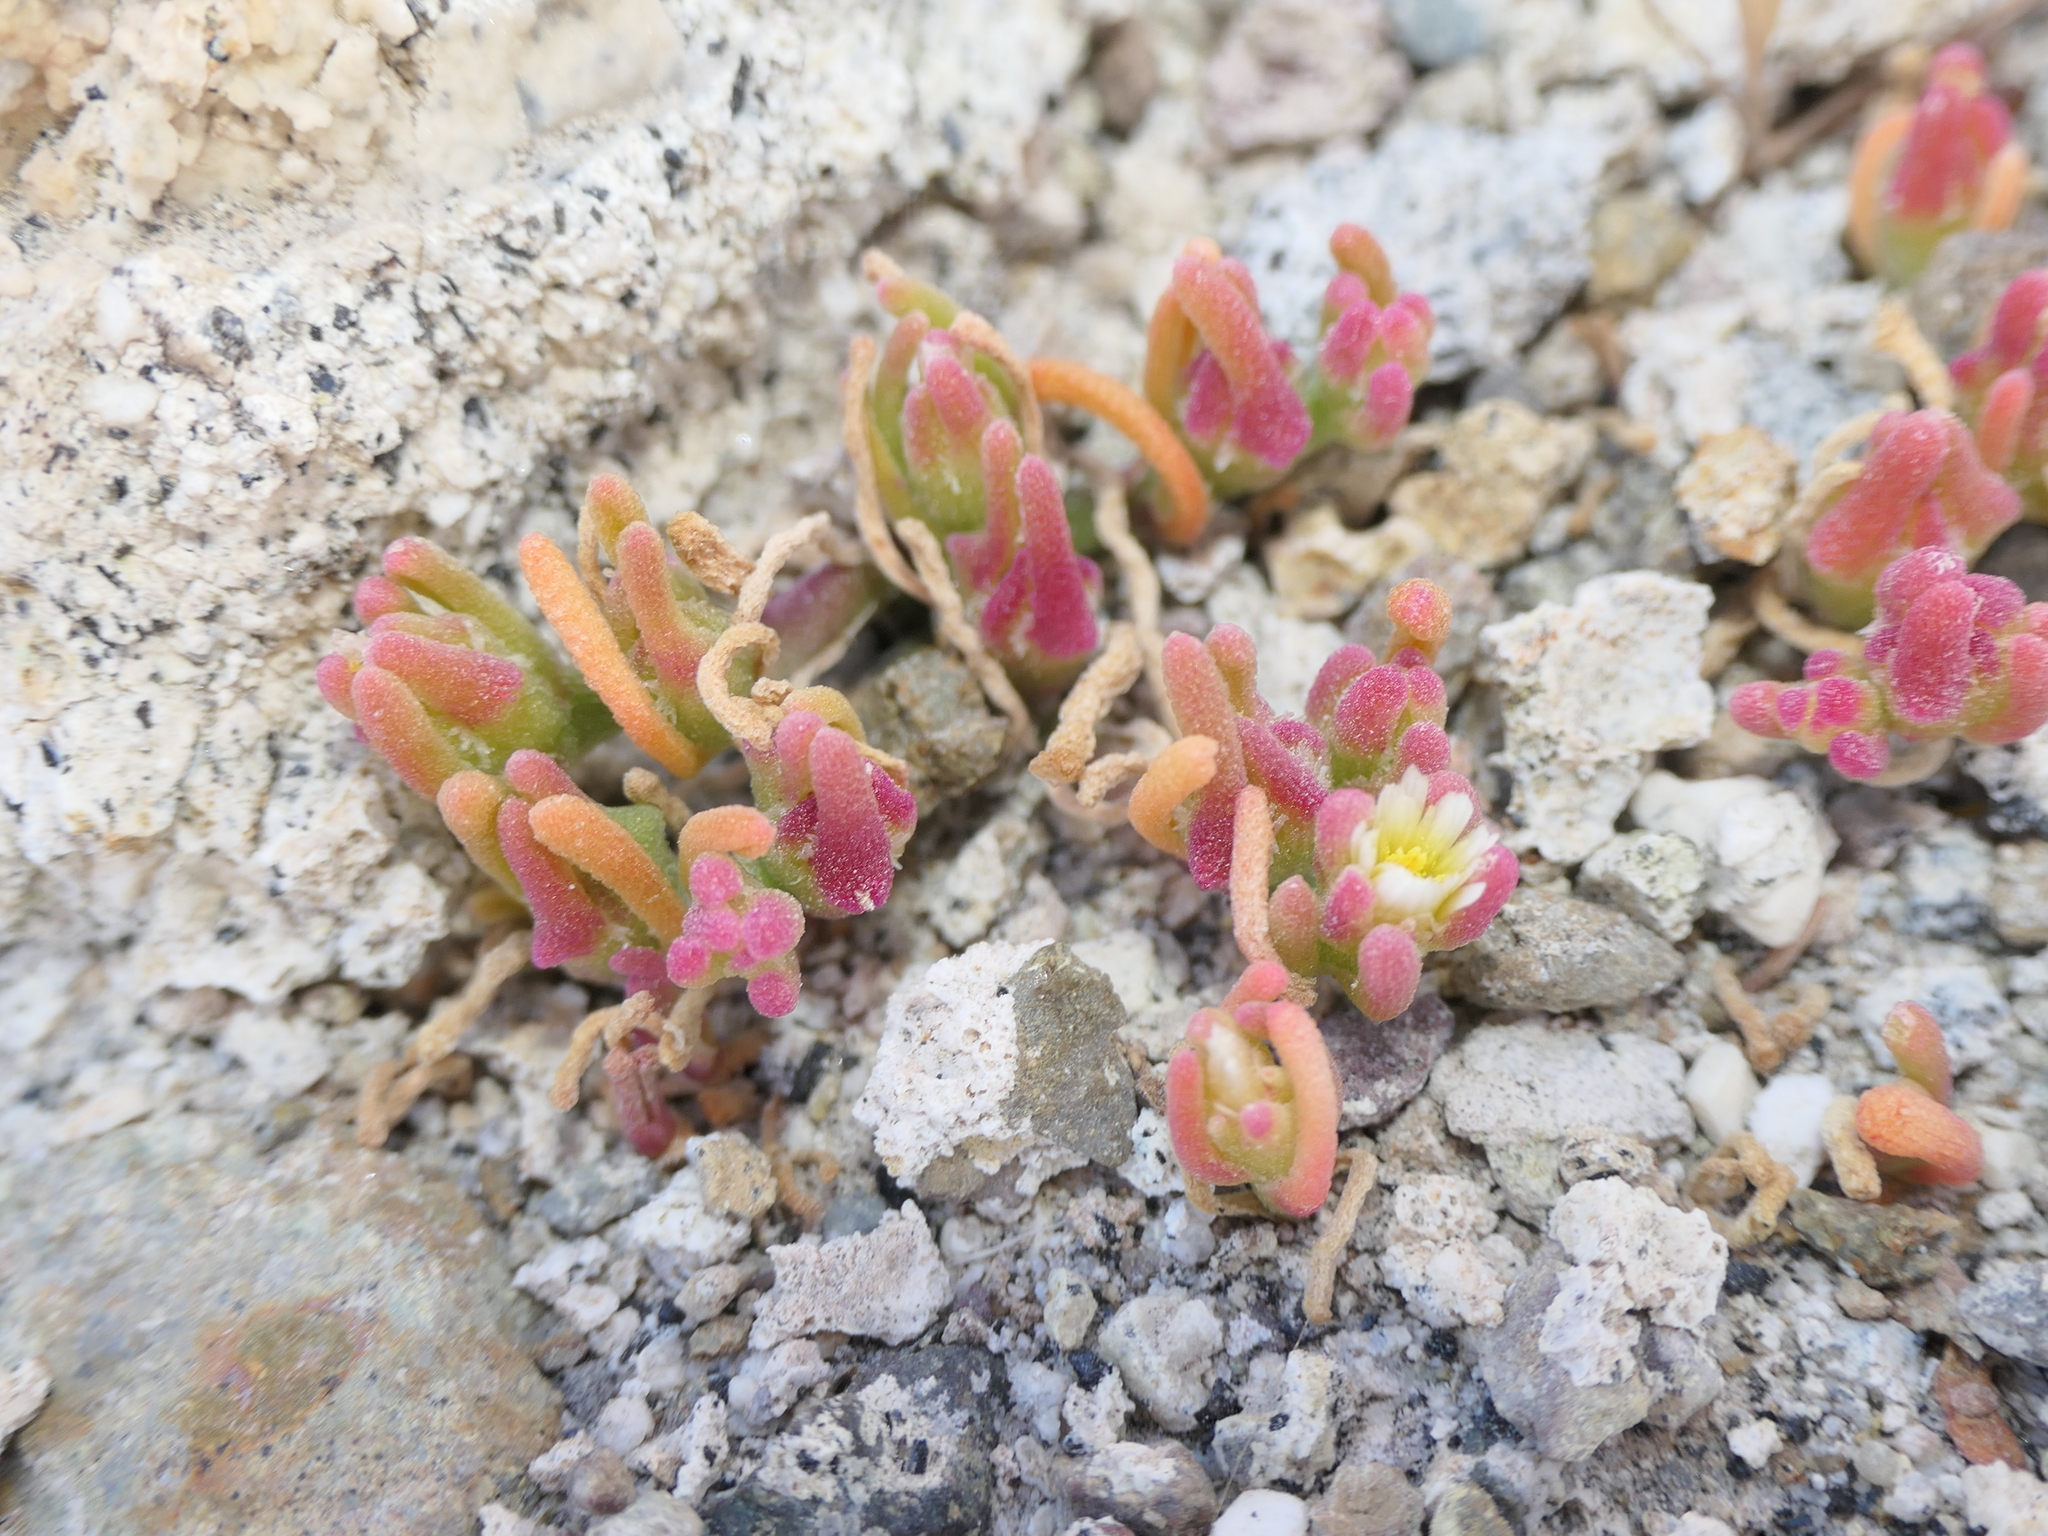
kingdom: Plantae
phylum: Tracheophyta
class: Magnoliopsida
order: Caryophyllales
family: Aizoaceae
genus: Mesembryanthemum
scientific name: Mesembryanthemum nodiflorum
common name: Slenderleaf iceplant
